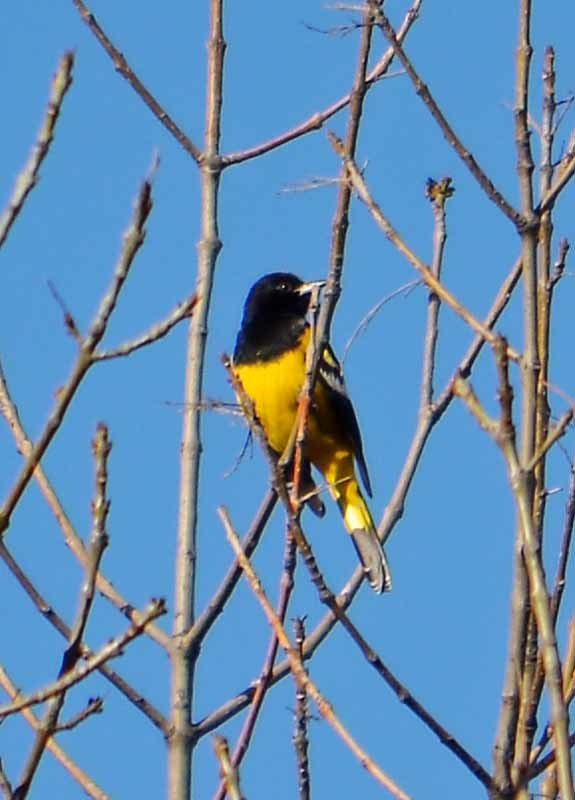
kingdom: Animalia
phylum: Chordata
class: Aves
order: Passeriformes
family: Icteridae
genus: Icterus
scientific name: Icterus parisorum
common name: Scott's oriole
